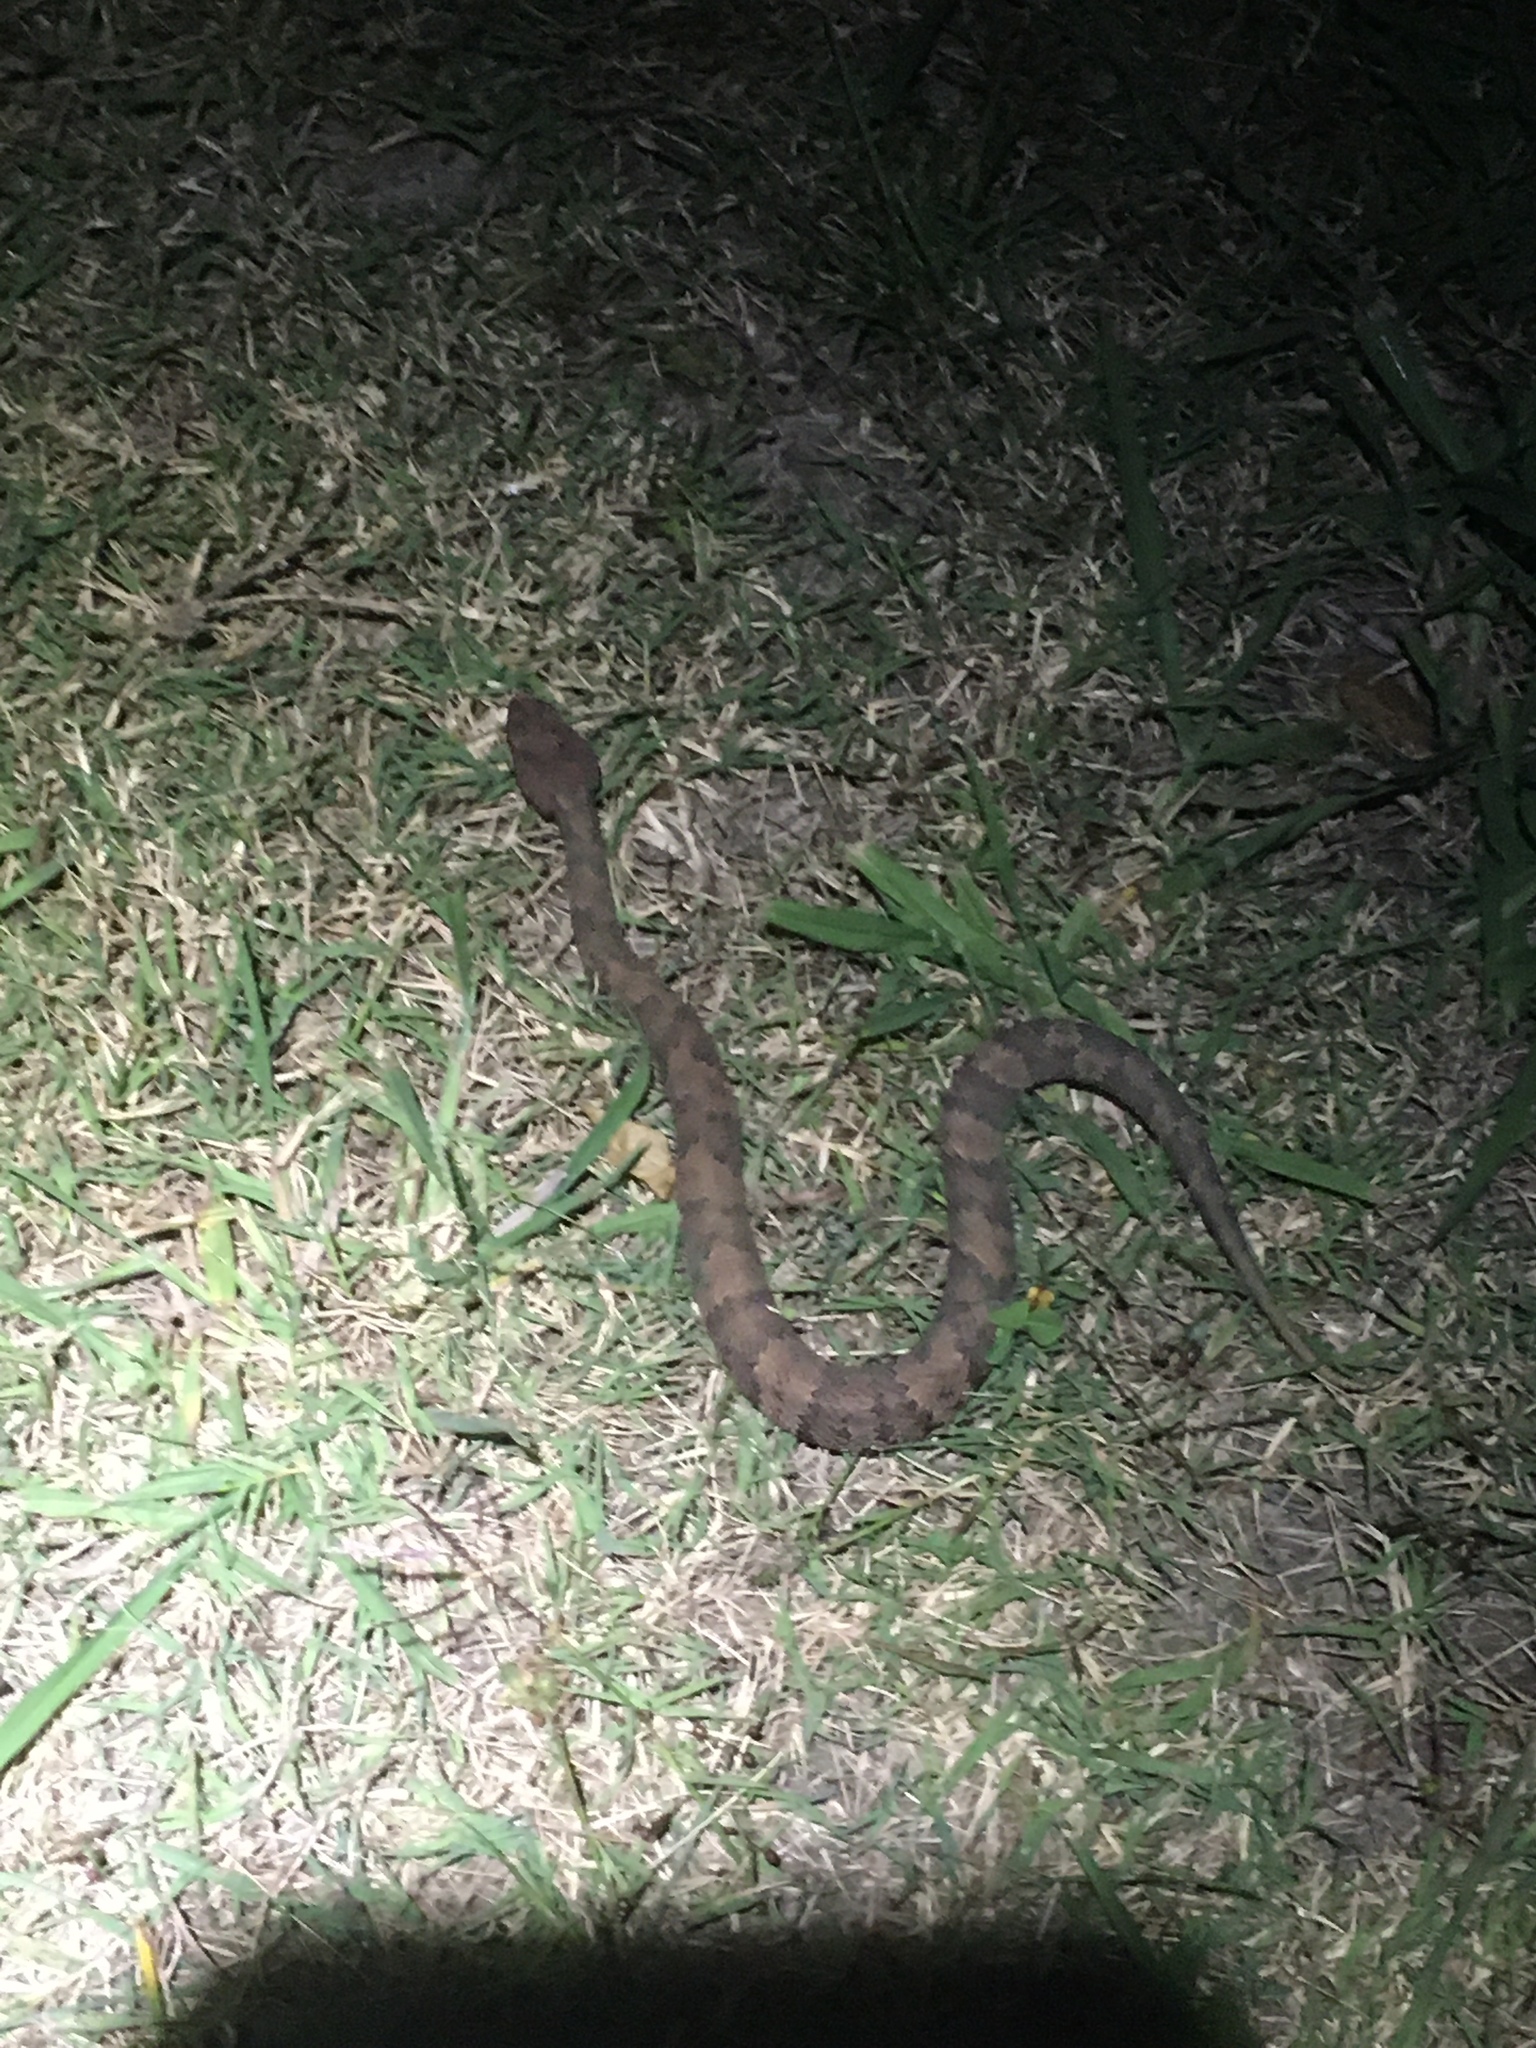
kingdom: Animalia
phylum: Chordata
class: Squamata
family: Viperidae
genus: Agkistrodon
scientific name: Agkistrodon piscivorus
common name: Cottonmouth
